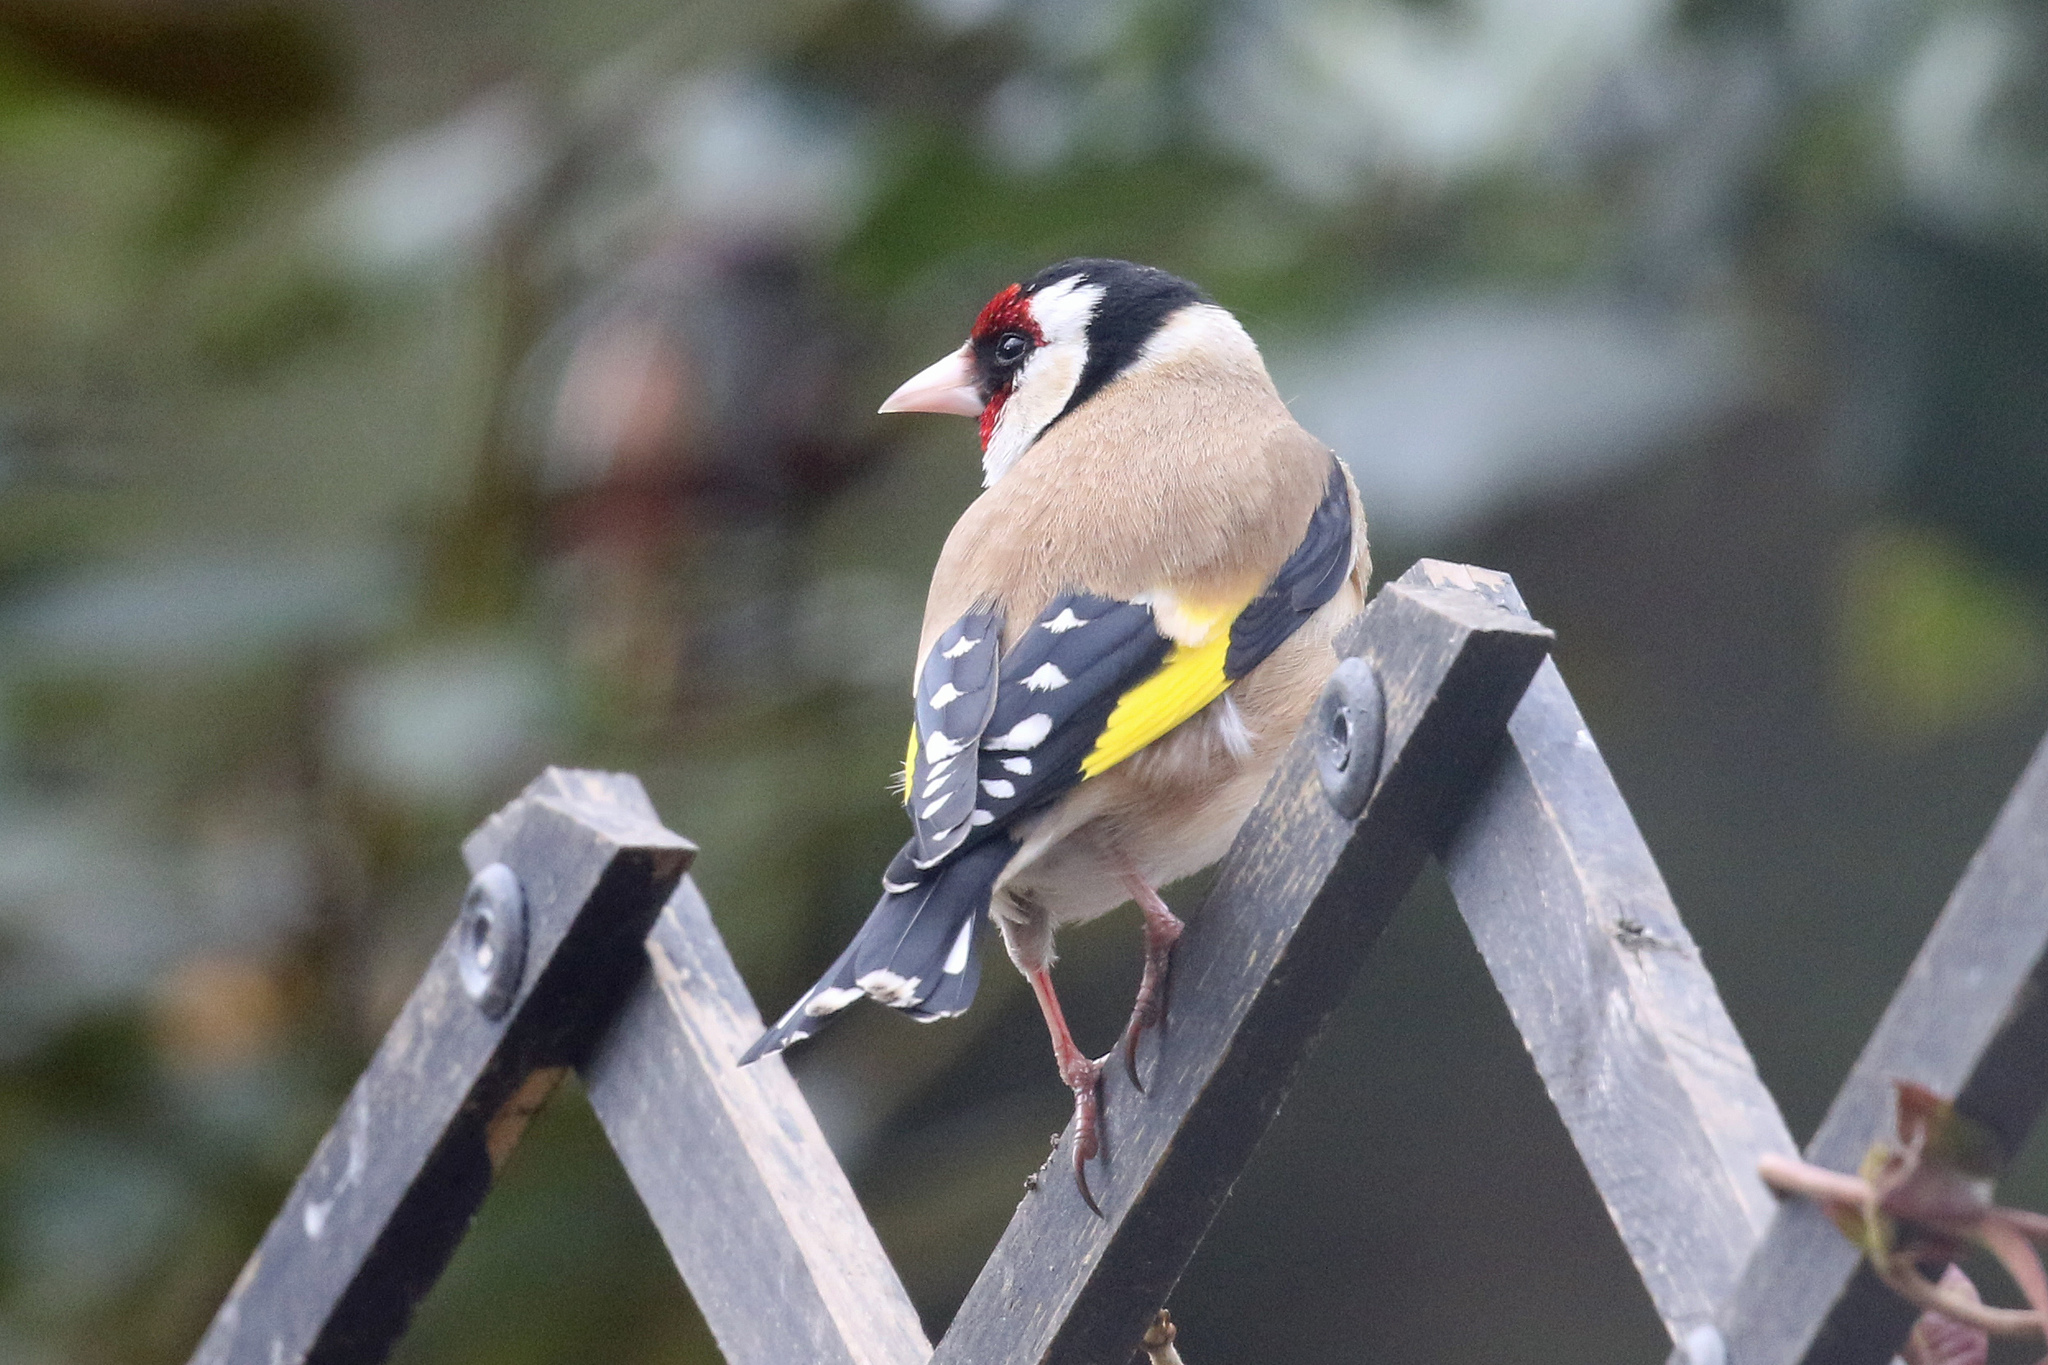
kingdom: Animalia
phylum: Chordata
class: Aves
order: Passeriformes
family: Fringillidae
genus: Carduelis
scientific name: Carduelis carduelis
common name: European goldfinch
